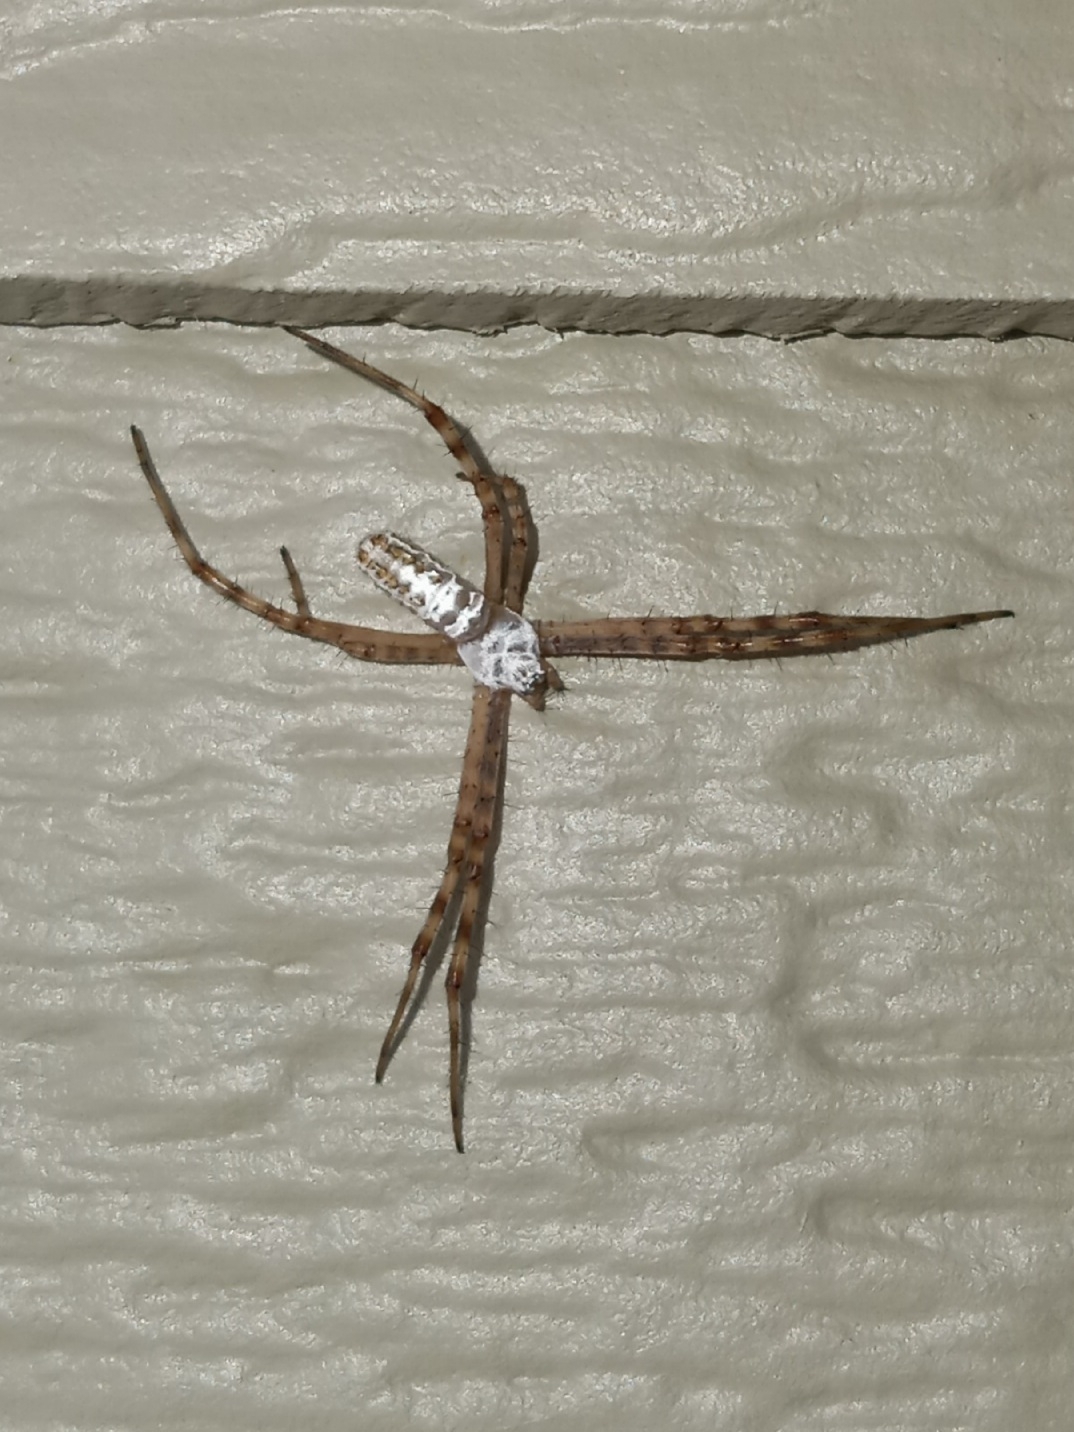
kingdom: Animalia
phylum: Arthropoda
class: Arachnida
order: Araneae
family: Araneidae
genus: Argiope
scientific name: Argiope trifasciata
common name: Banded garden spider
